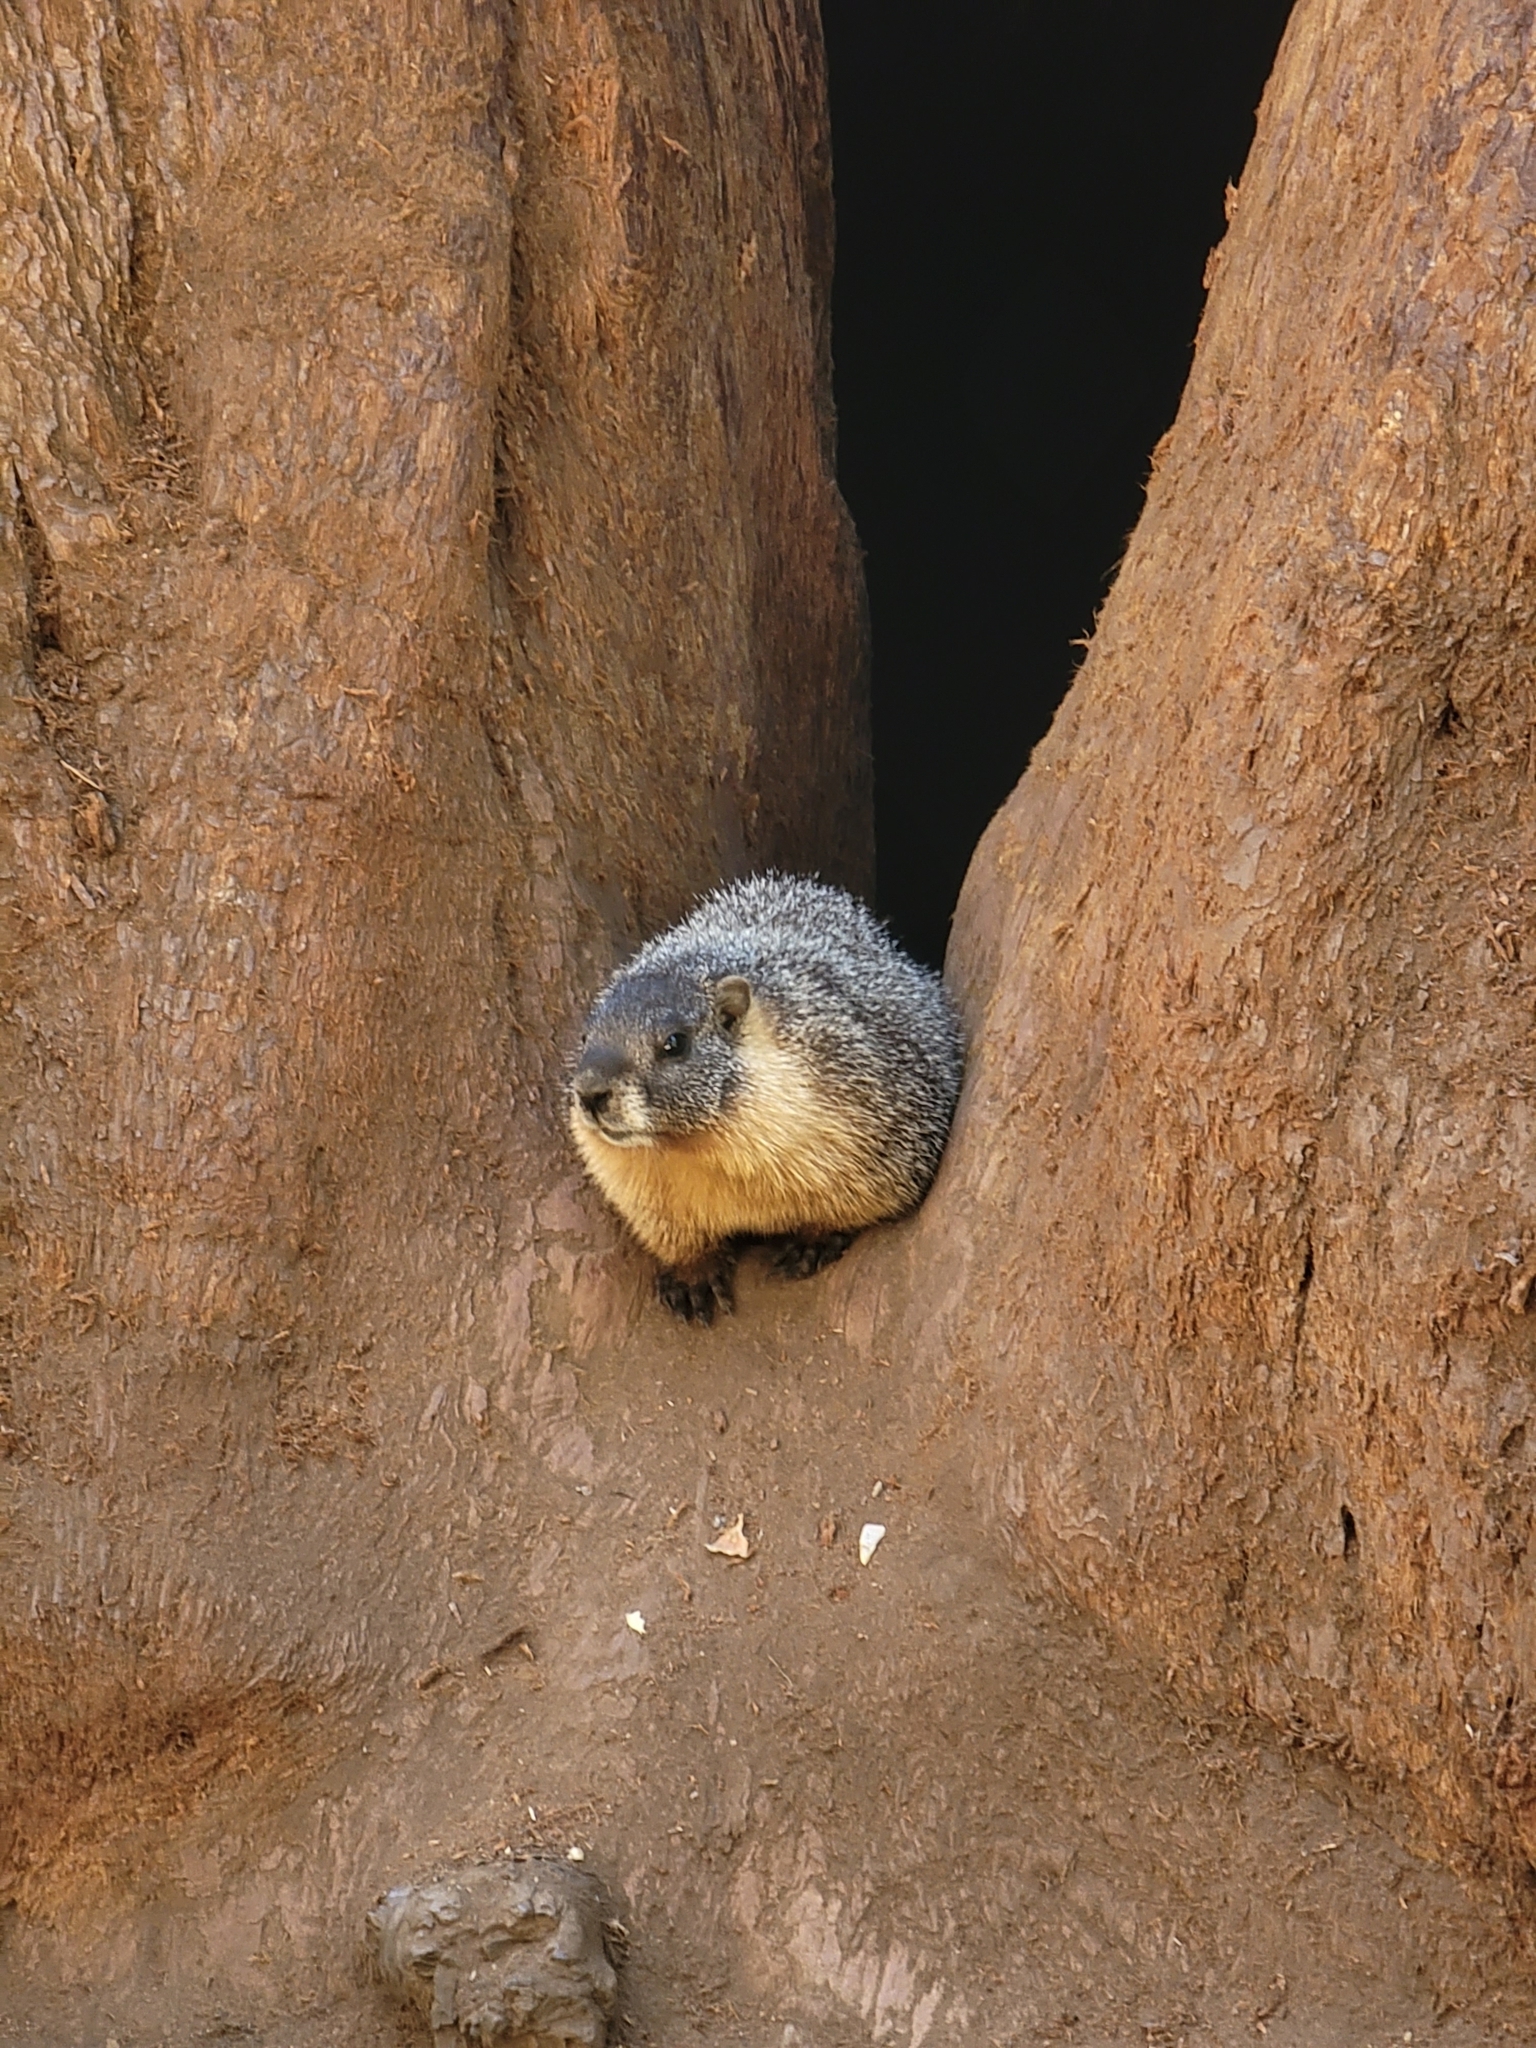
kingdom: Animalia
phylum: Chordata
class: Mammalia
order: Rodentia
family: Sciuridae
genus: Marmota
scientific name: Marmota flaviventris
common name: Yellow-bellied marmot
